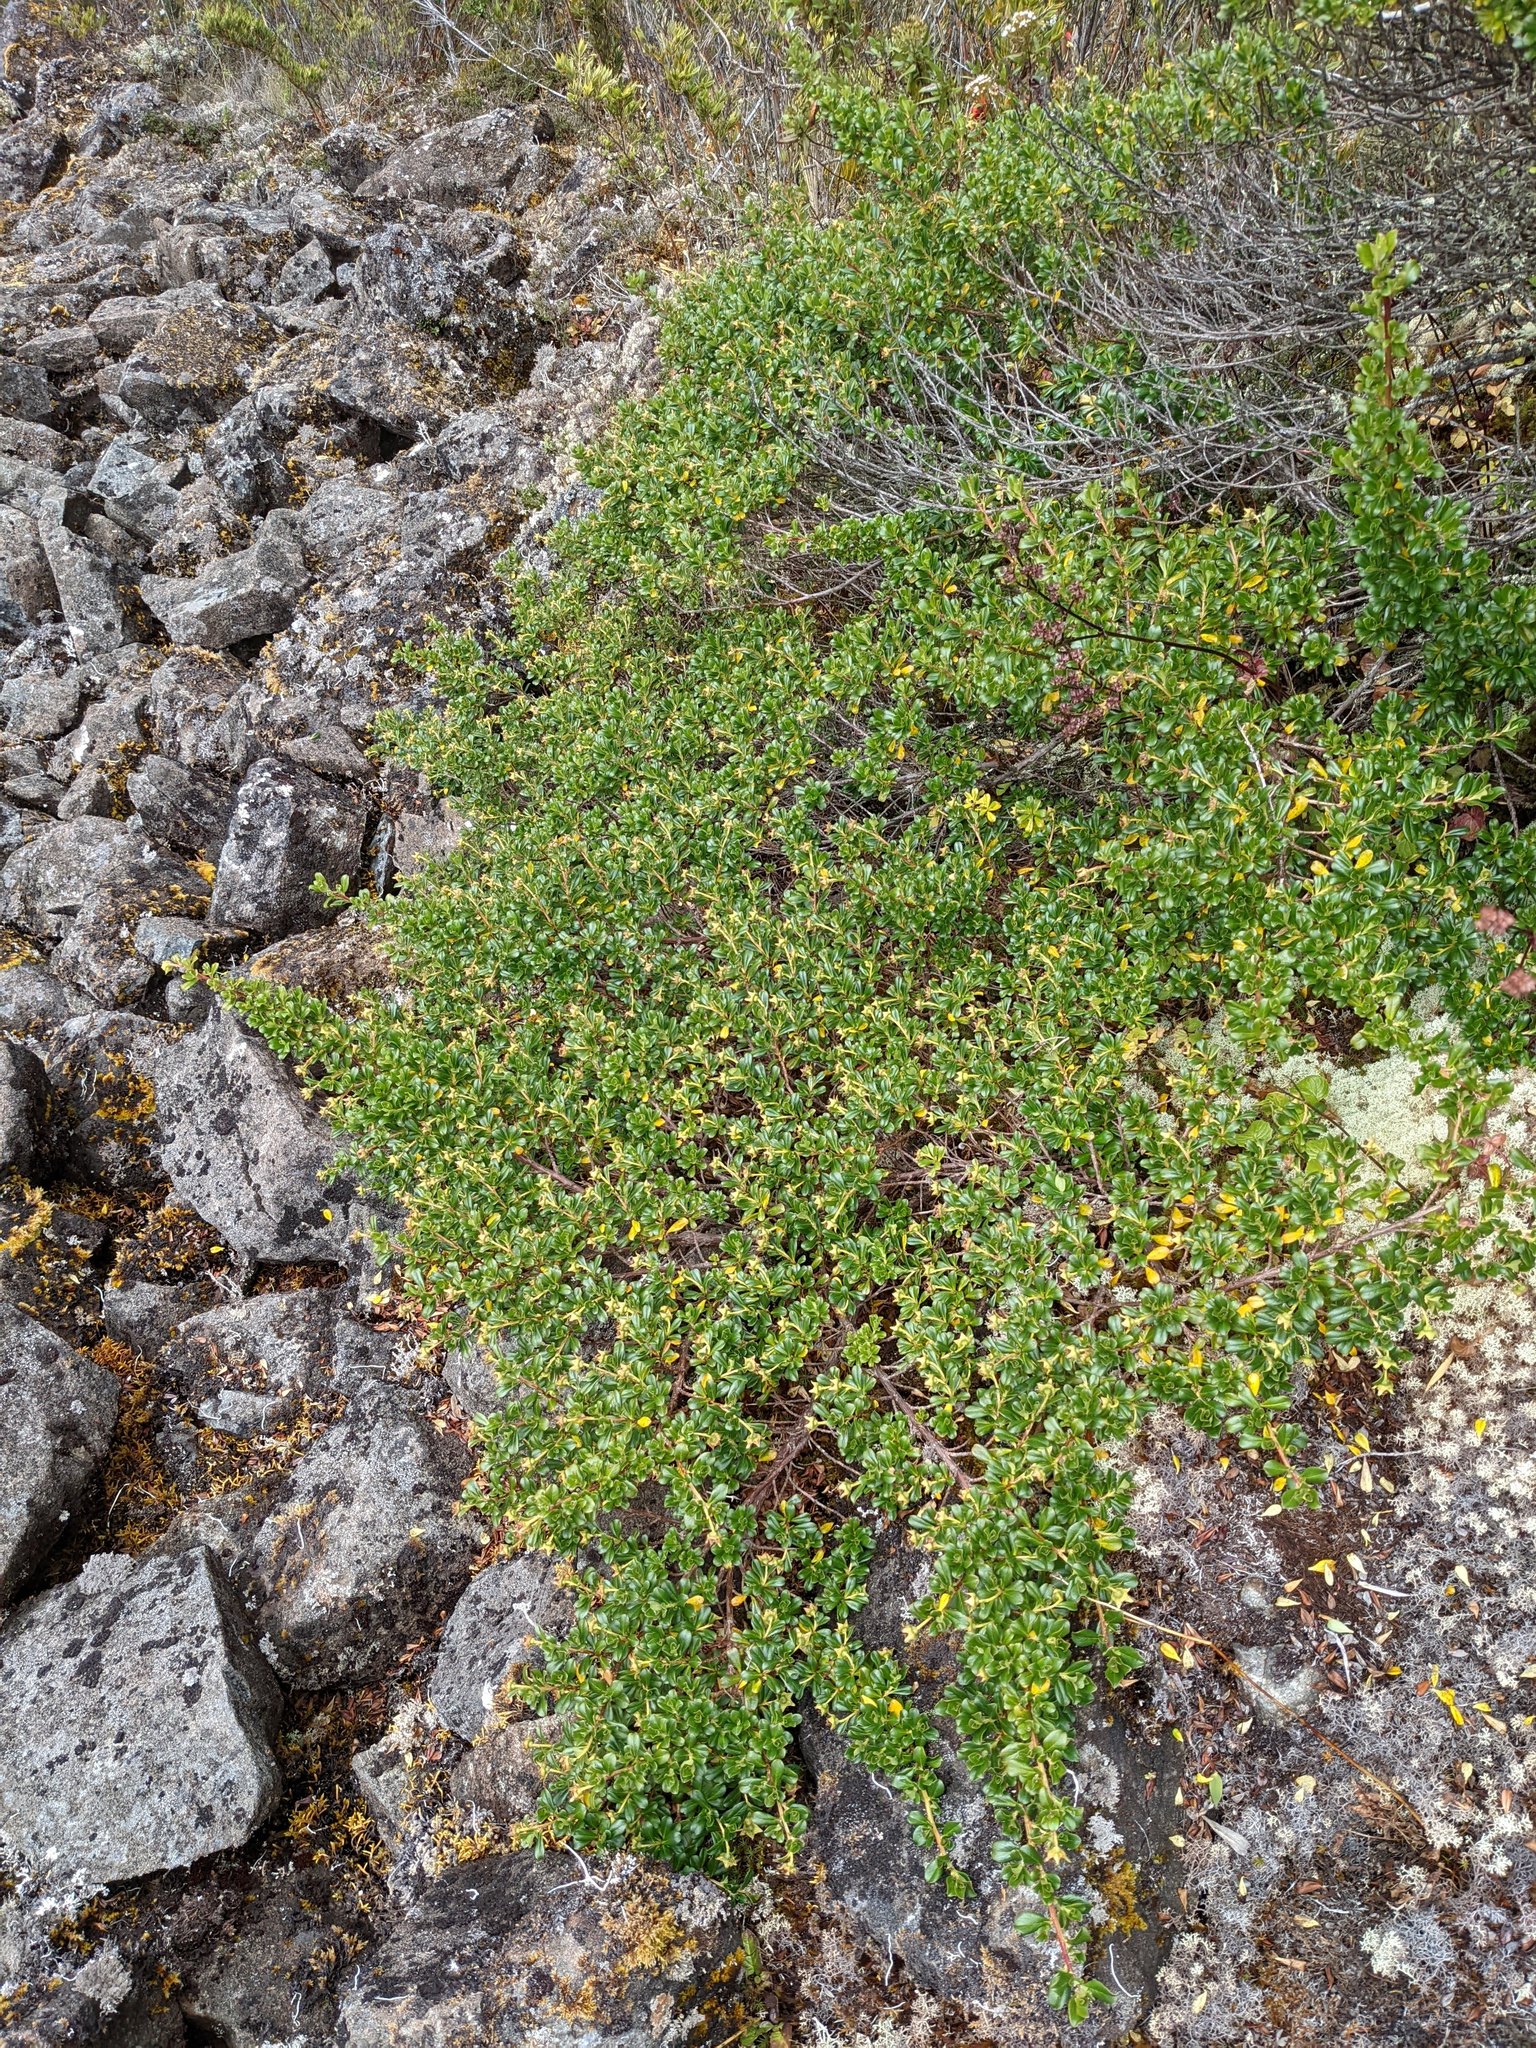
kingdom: Plantae
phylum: Tracheophyta
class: Magnoliopsida
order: Escalloniales
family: Escalloniaceae
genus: Escallonia
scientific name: Escallonia myrtilloides
